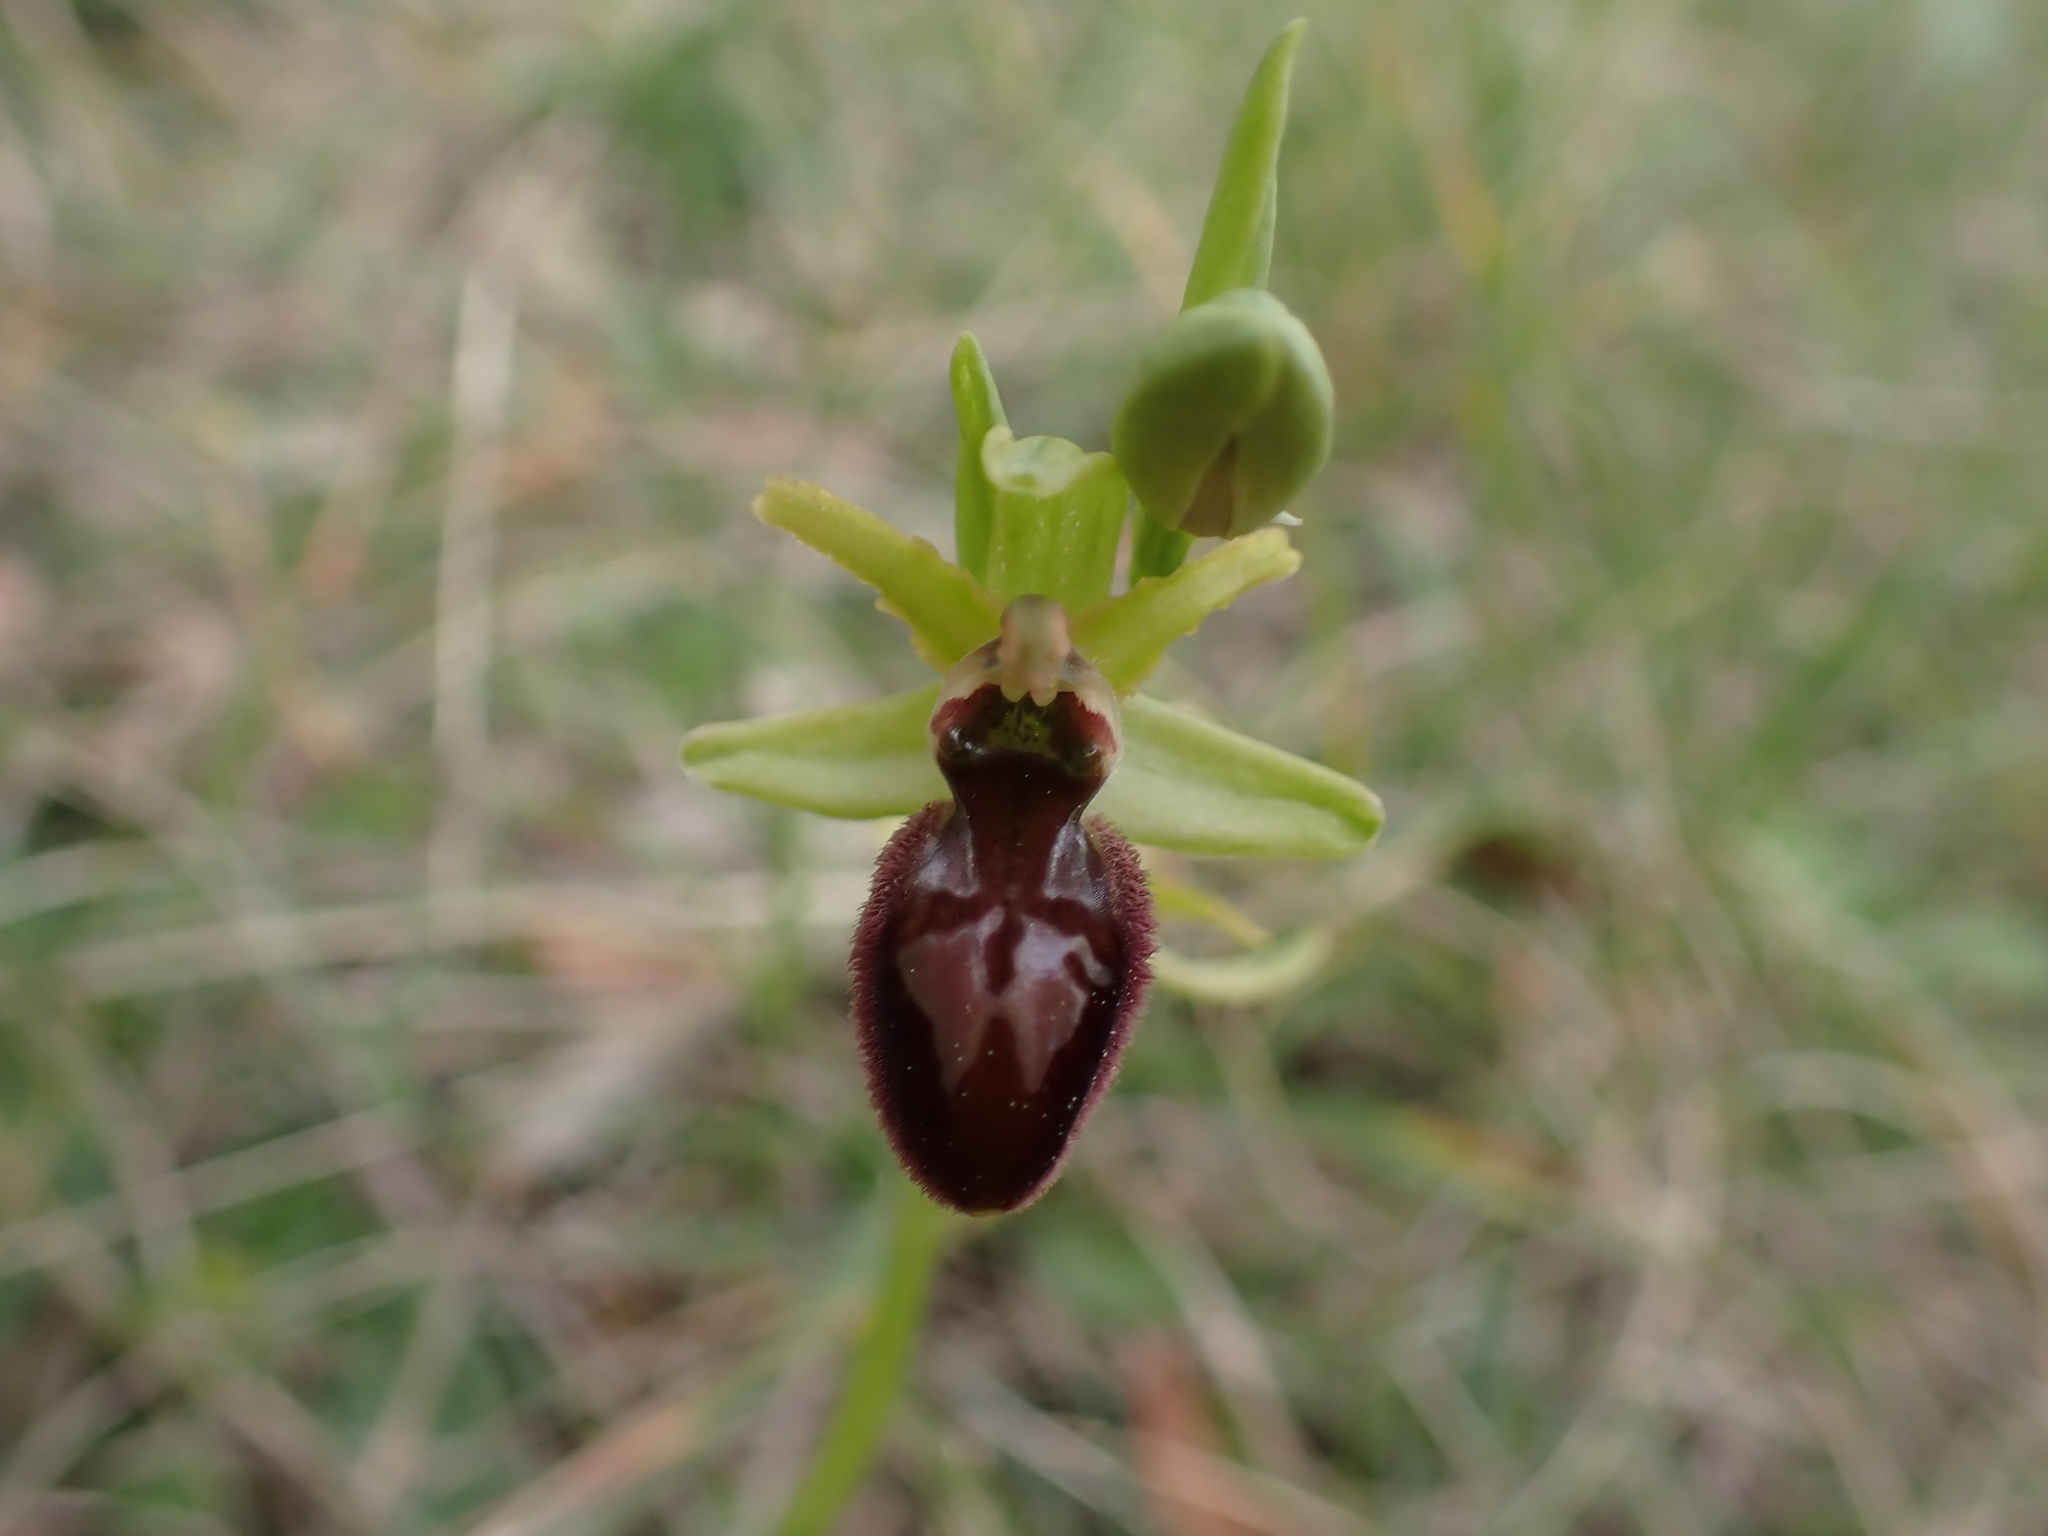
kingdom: Plantae
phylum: Tracheophyta
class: Liliopsida
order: Asparagales
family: Orchidaceae
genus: Ophrys
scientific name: Ophrys arachnitiformis
